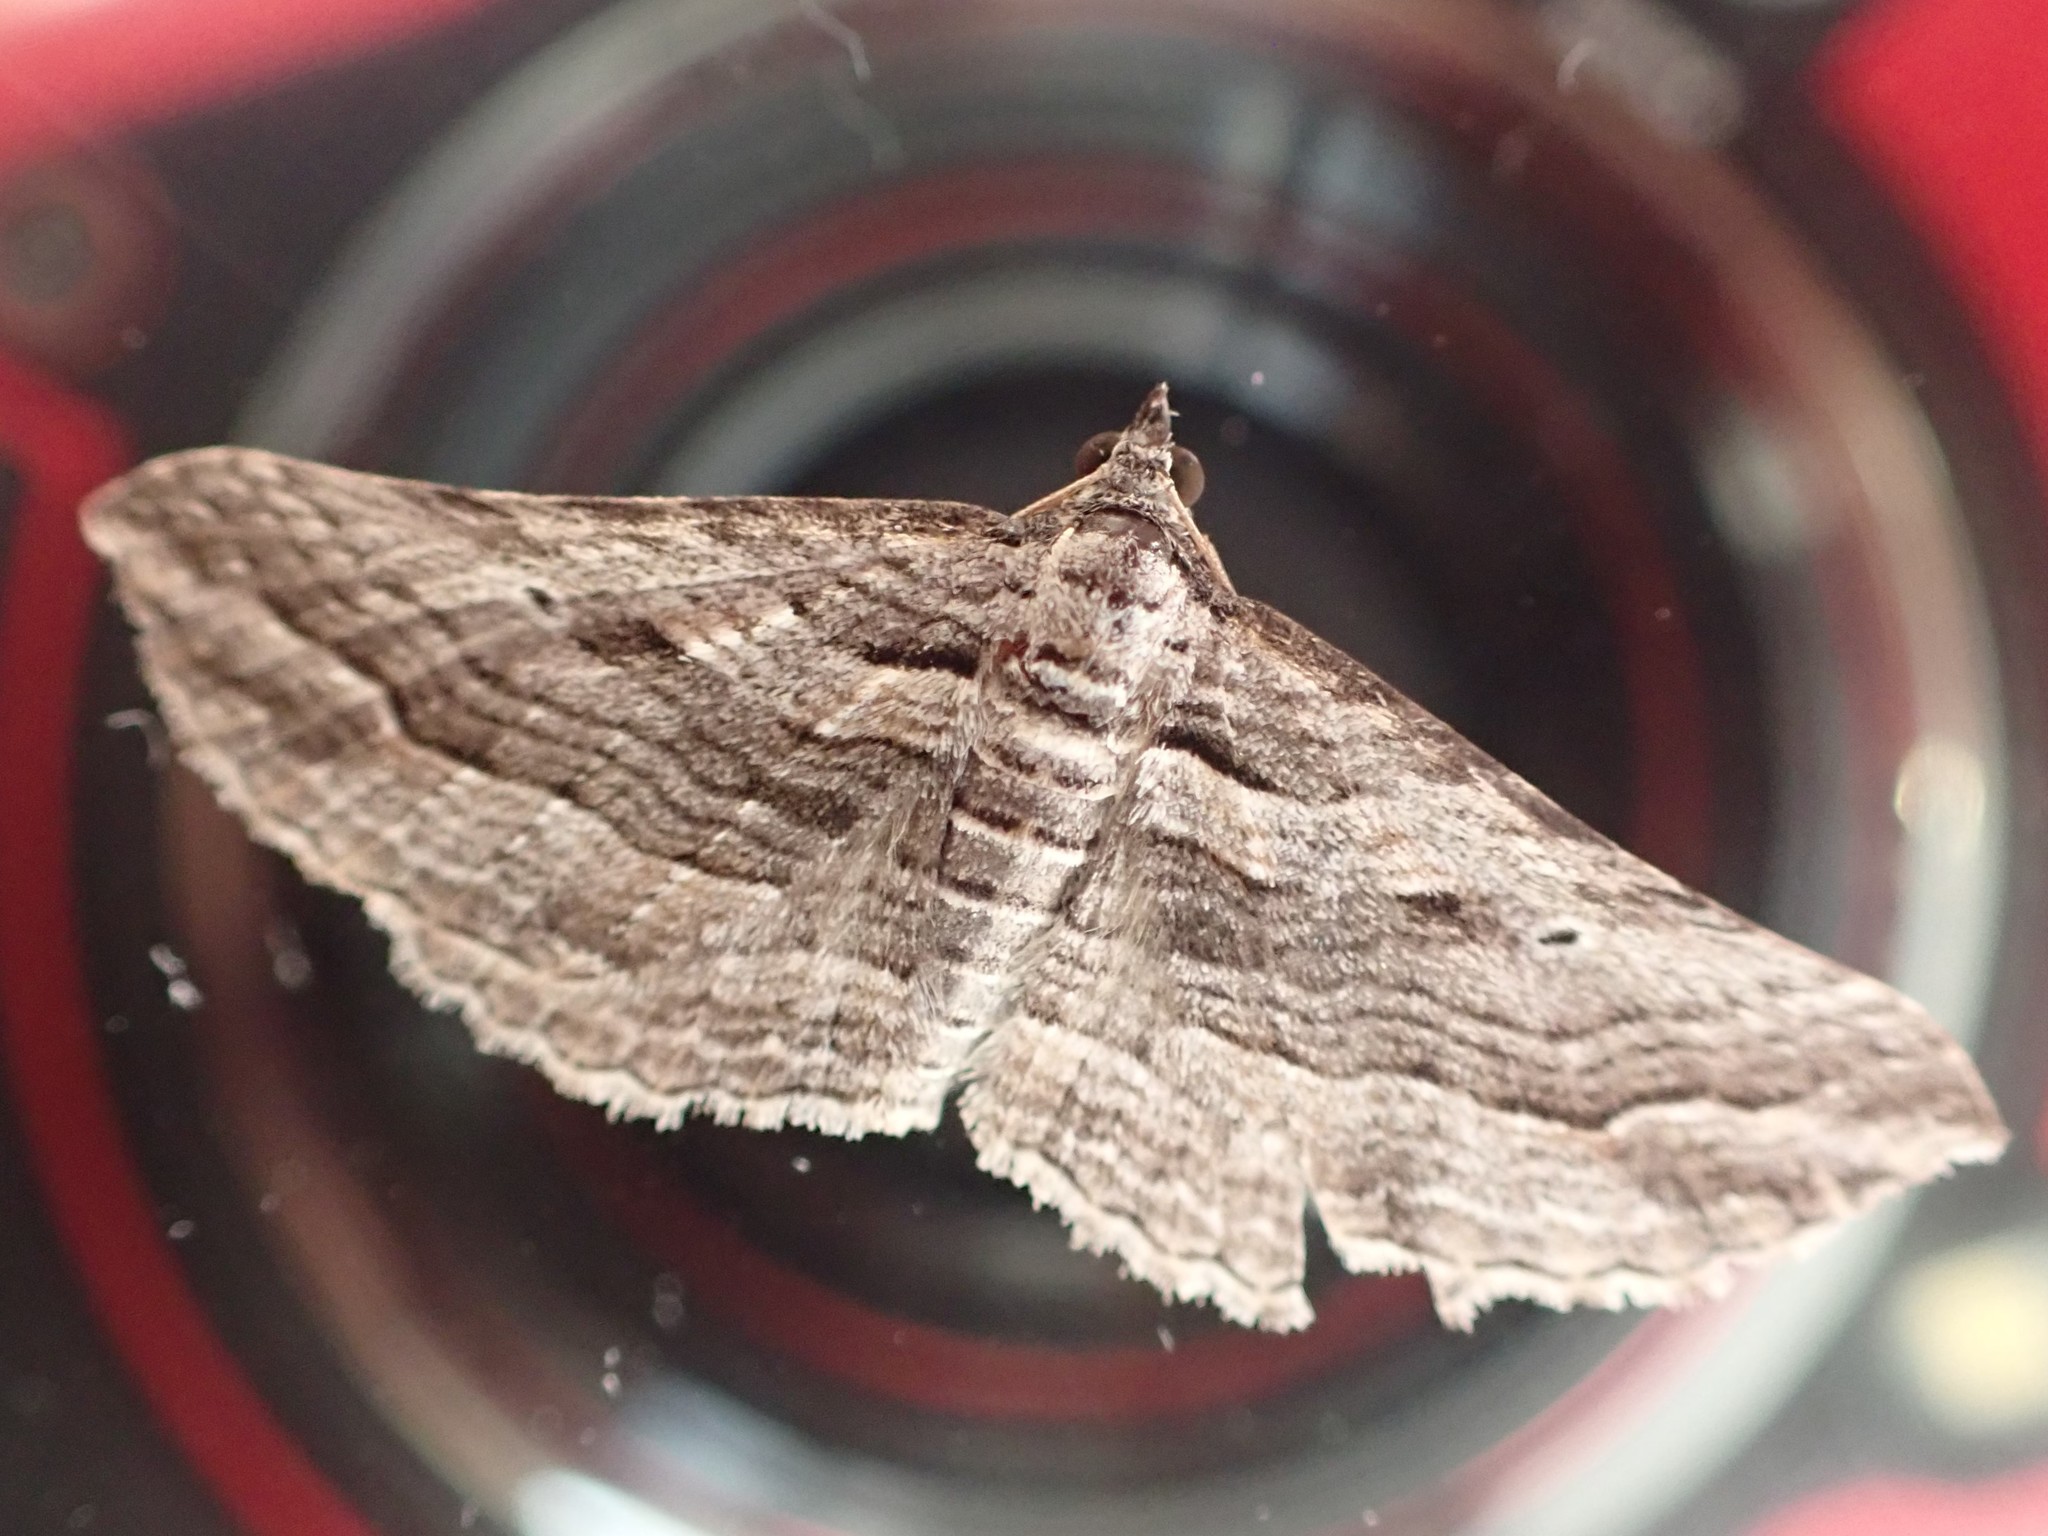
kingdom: Animalia
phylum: Arthropoda
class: Insecta
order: Lepidoptera
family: Geometridae
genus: Chrysolarentia
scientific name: Chrysolarentia severata
